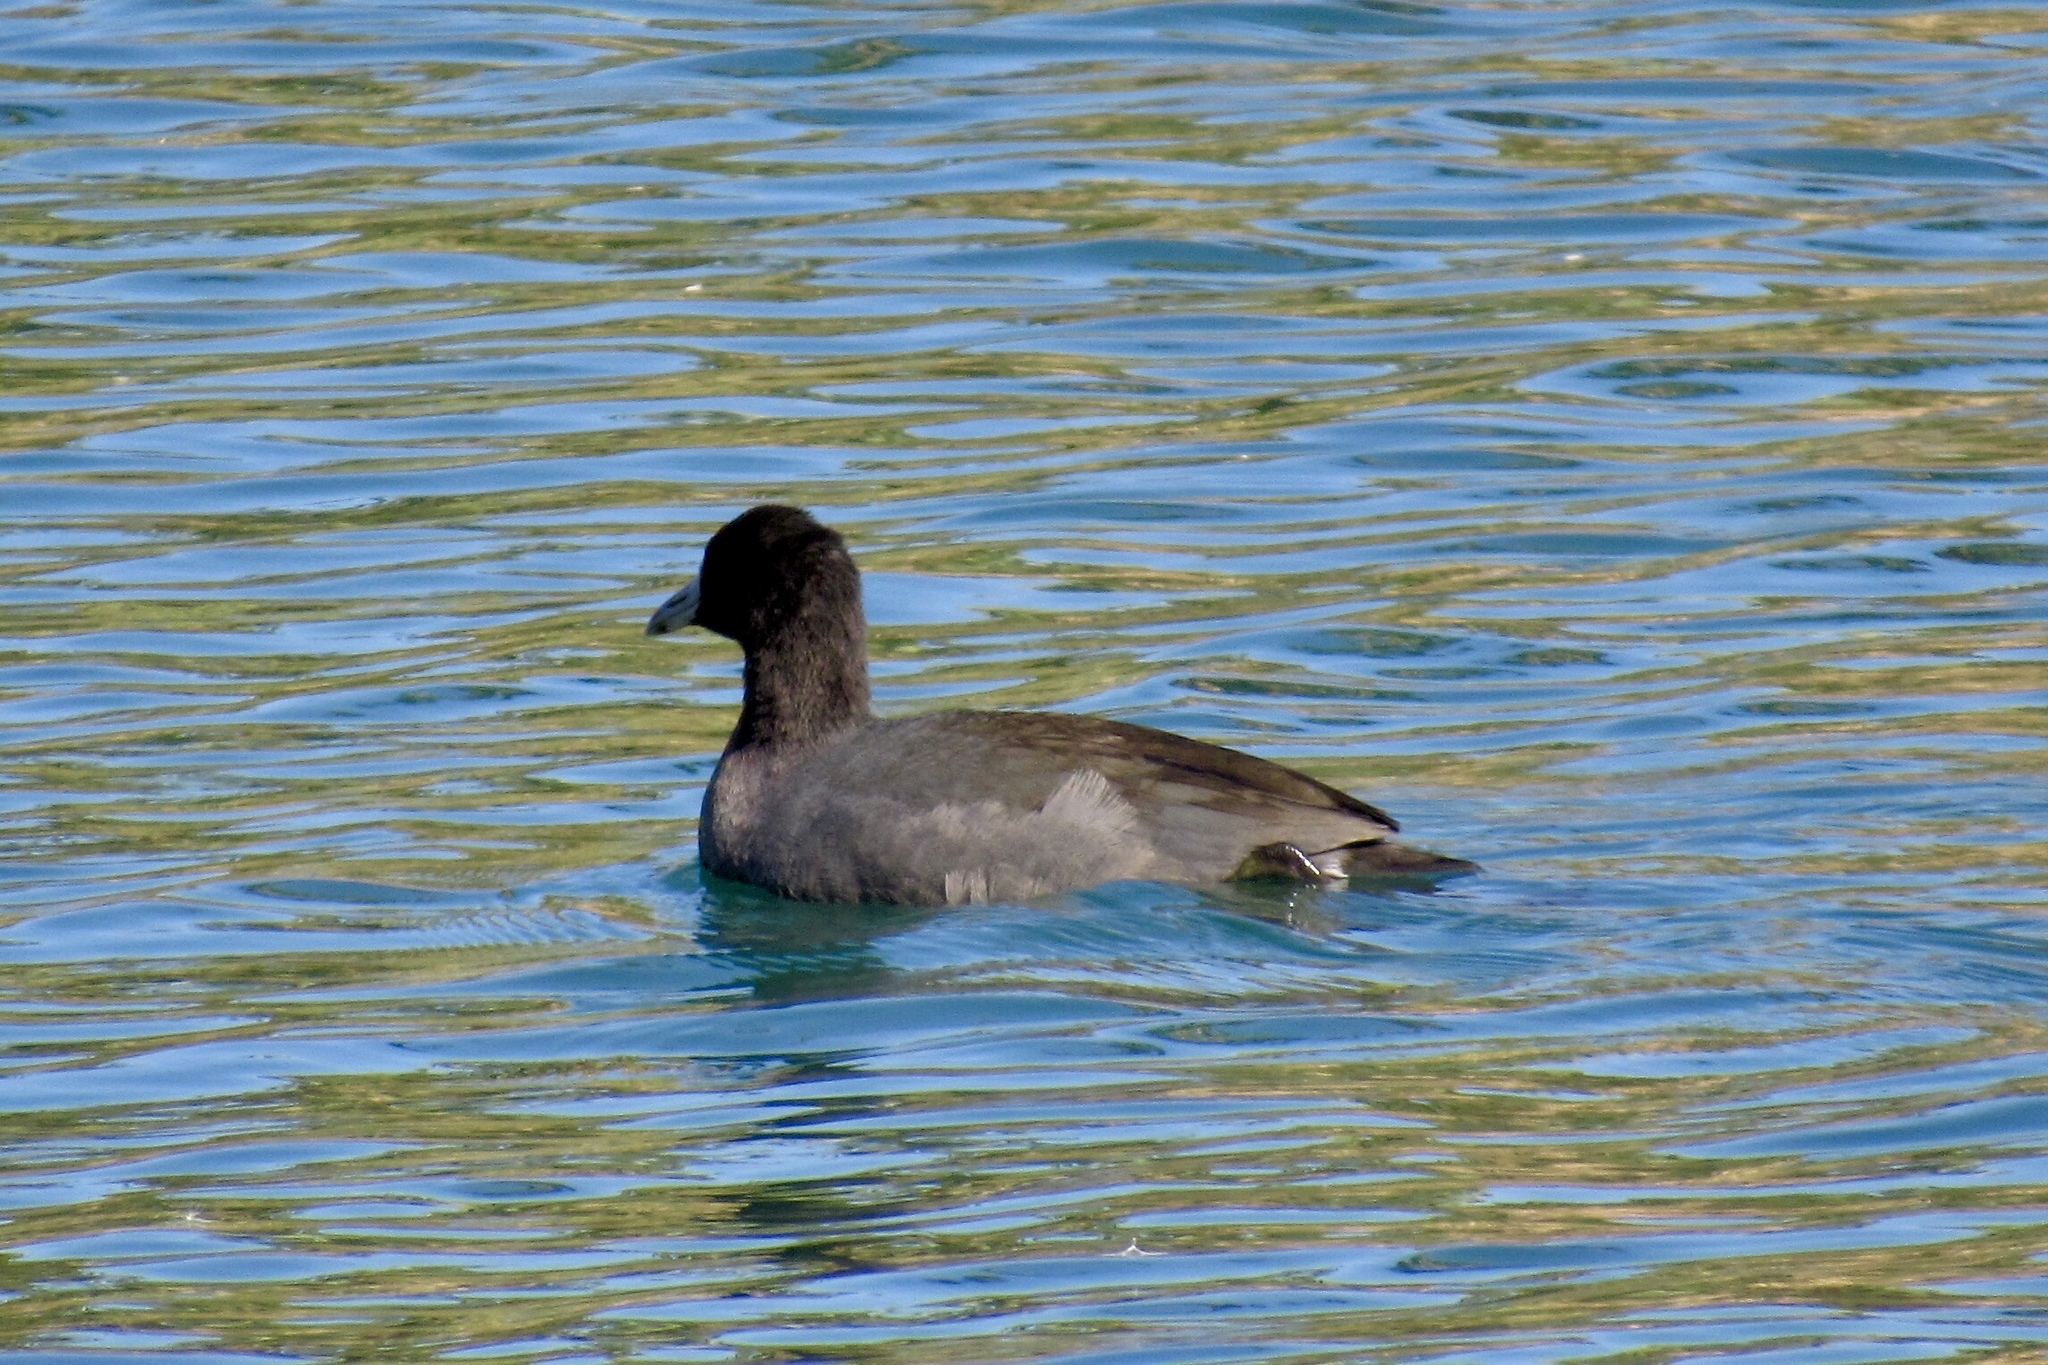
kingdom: Animalia
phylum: Chordata
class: Aves
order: Gruiformes
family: Rallidae
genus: Fulica
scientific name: Fulica americana
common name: American coot
